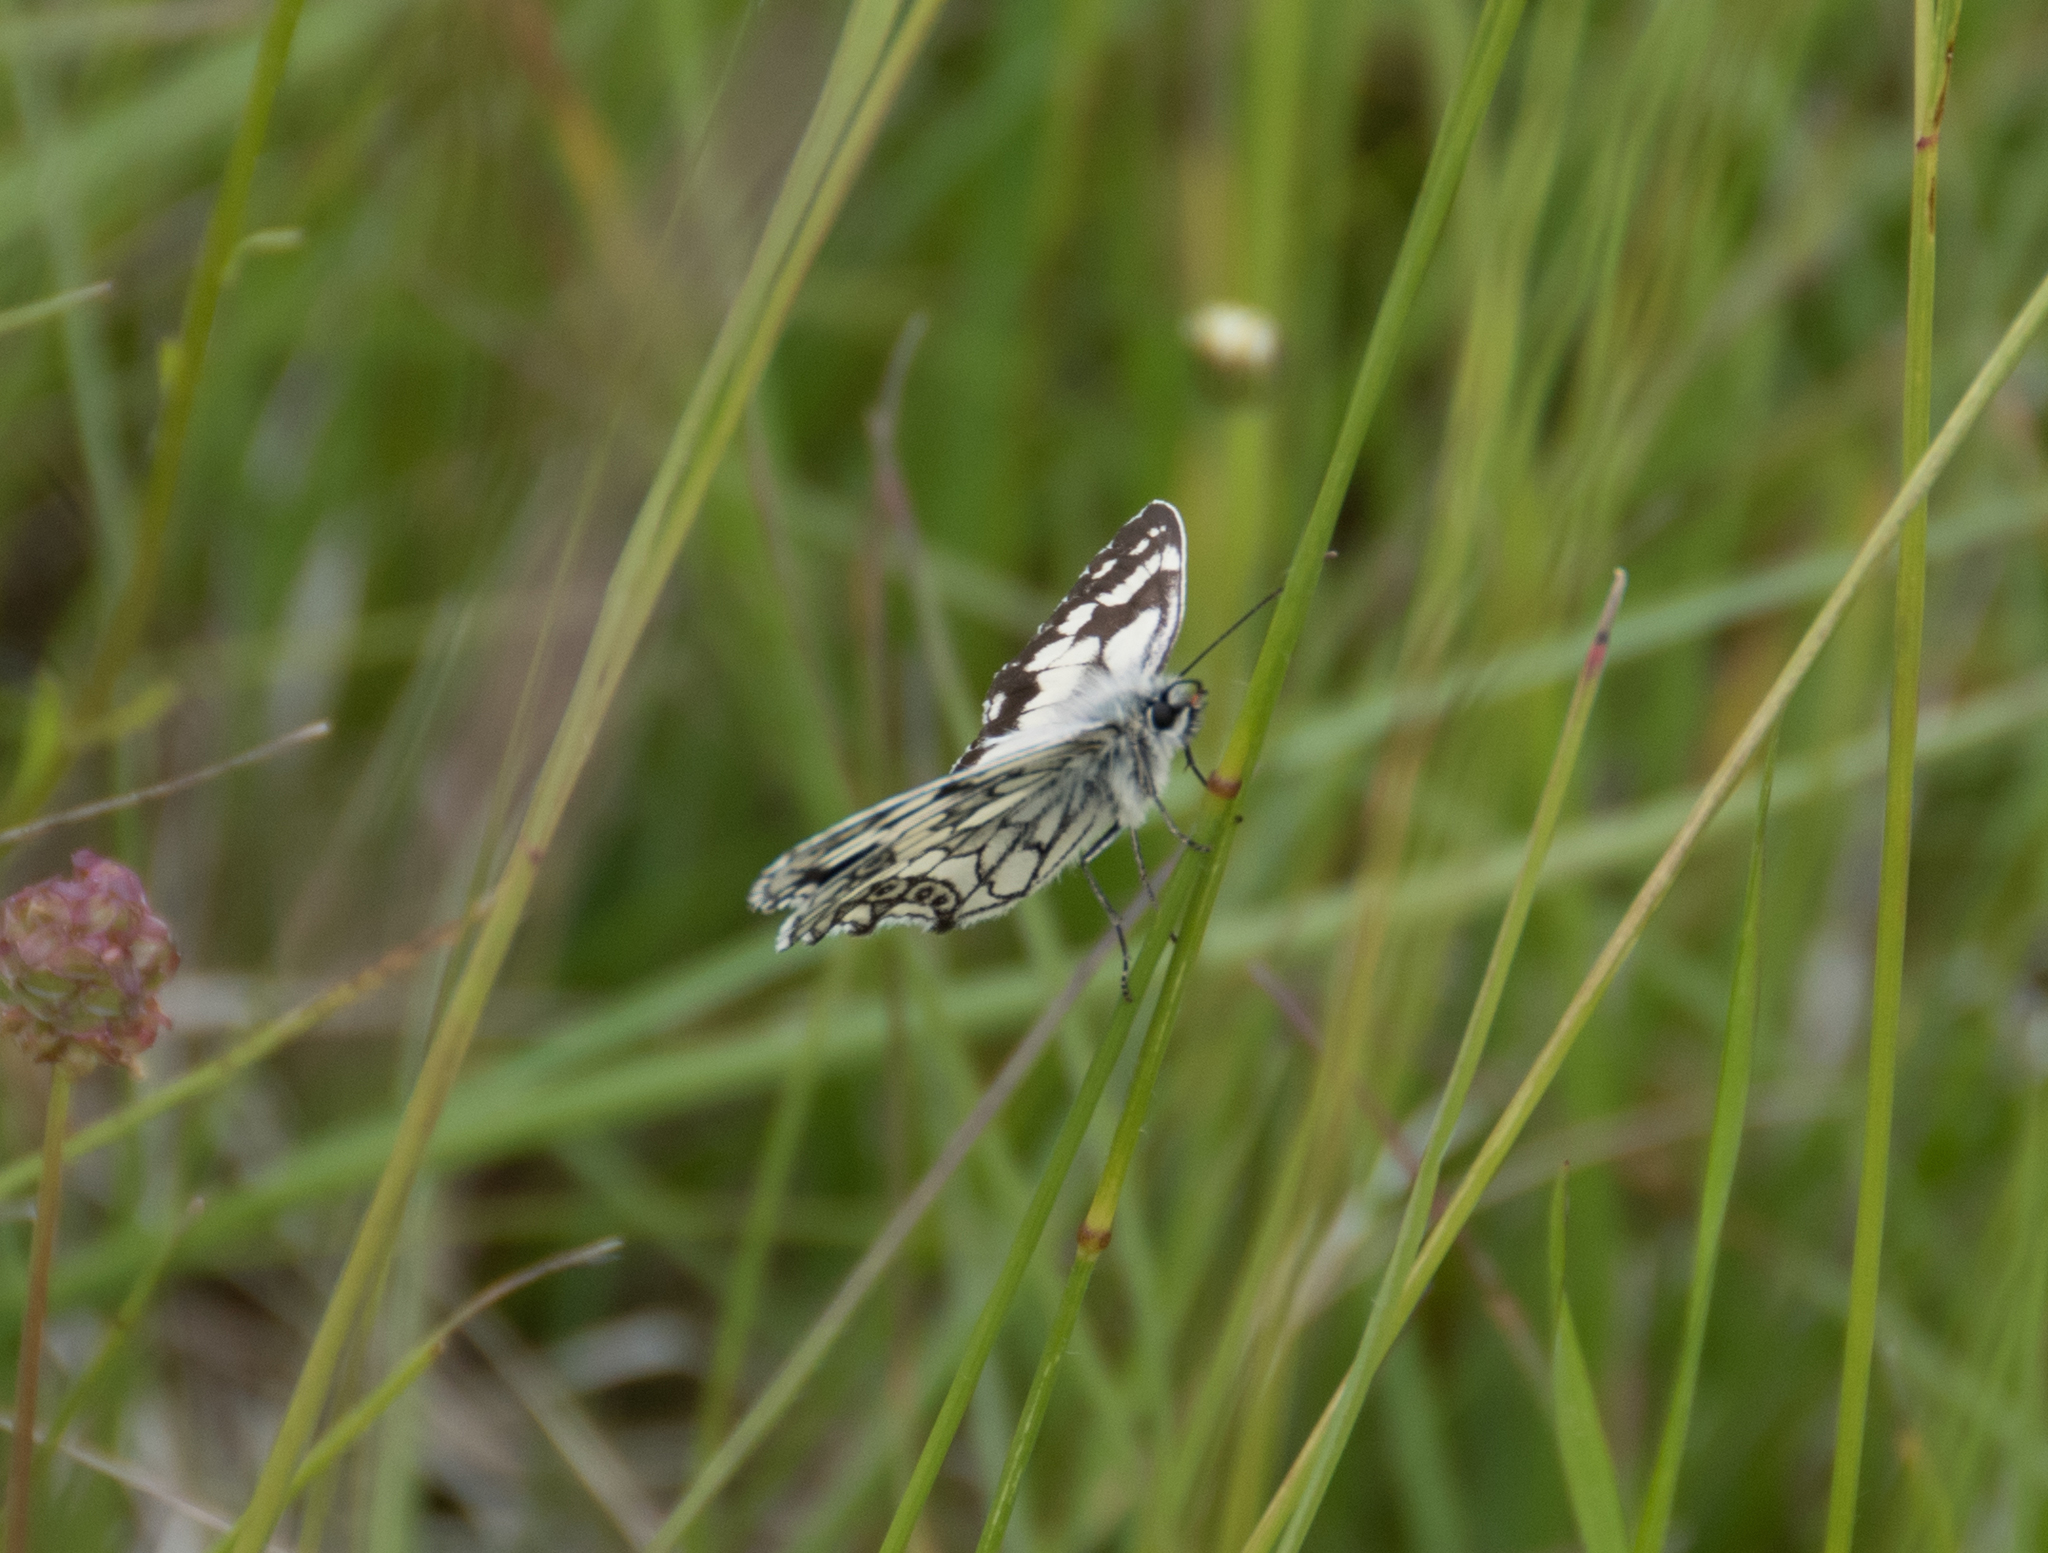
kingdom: Animalia
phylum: Arthropoda
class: Insecta
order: Lepidoptera
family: Nymphalidae
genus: Melanargia
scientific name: Melanargia galathea
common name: Marbled white
